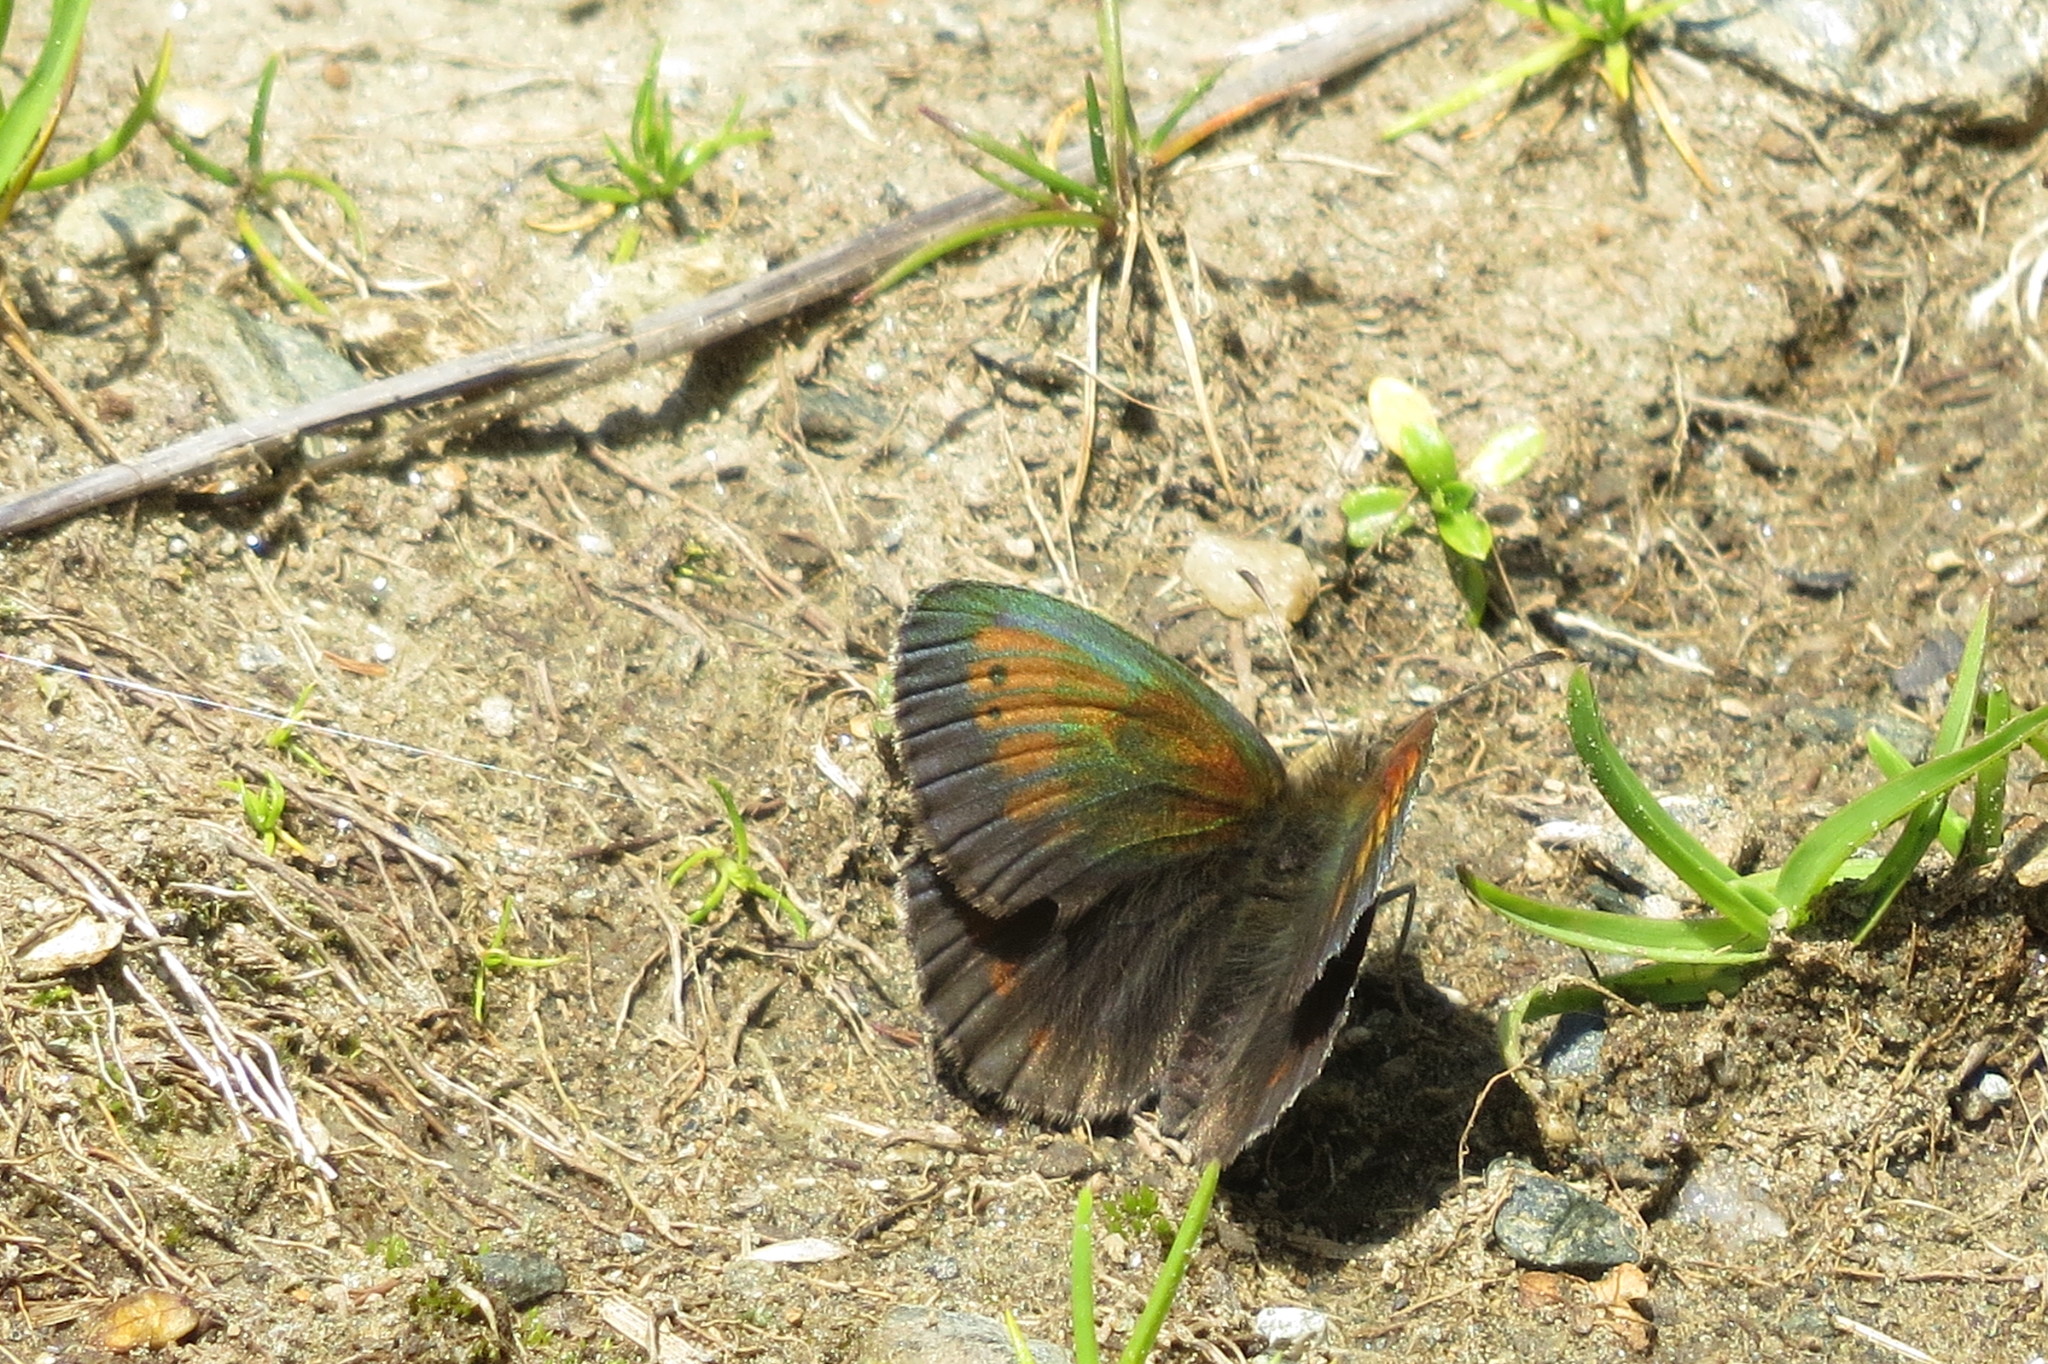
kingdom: Animalia
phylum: Arthropoda
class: Insecta
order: Lepidoptera
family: Nymphalidae
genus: Erebia
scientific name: Erebia tyndarus
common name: Swiss brassy ringlet
